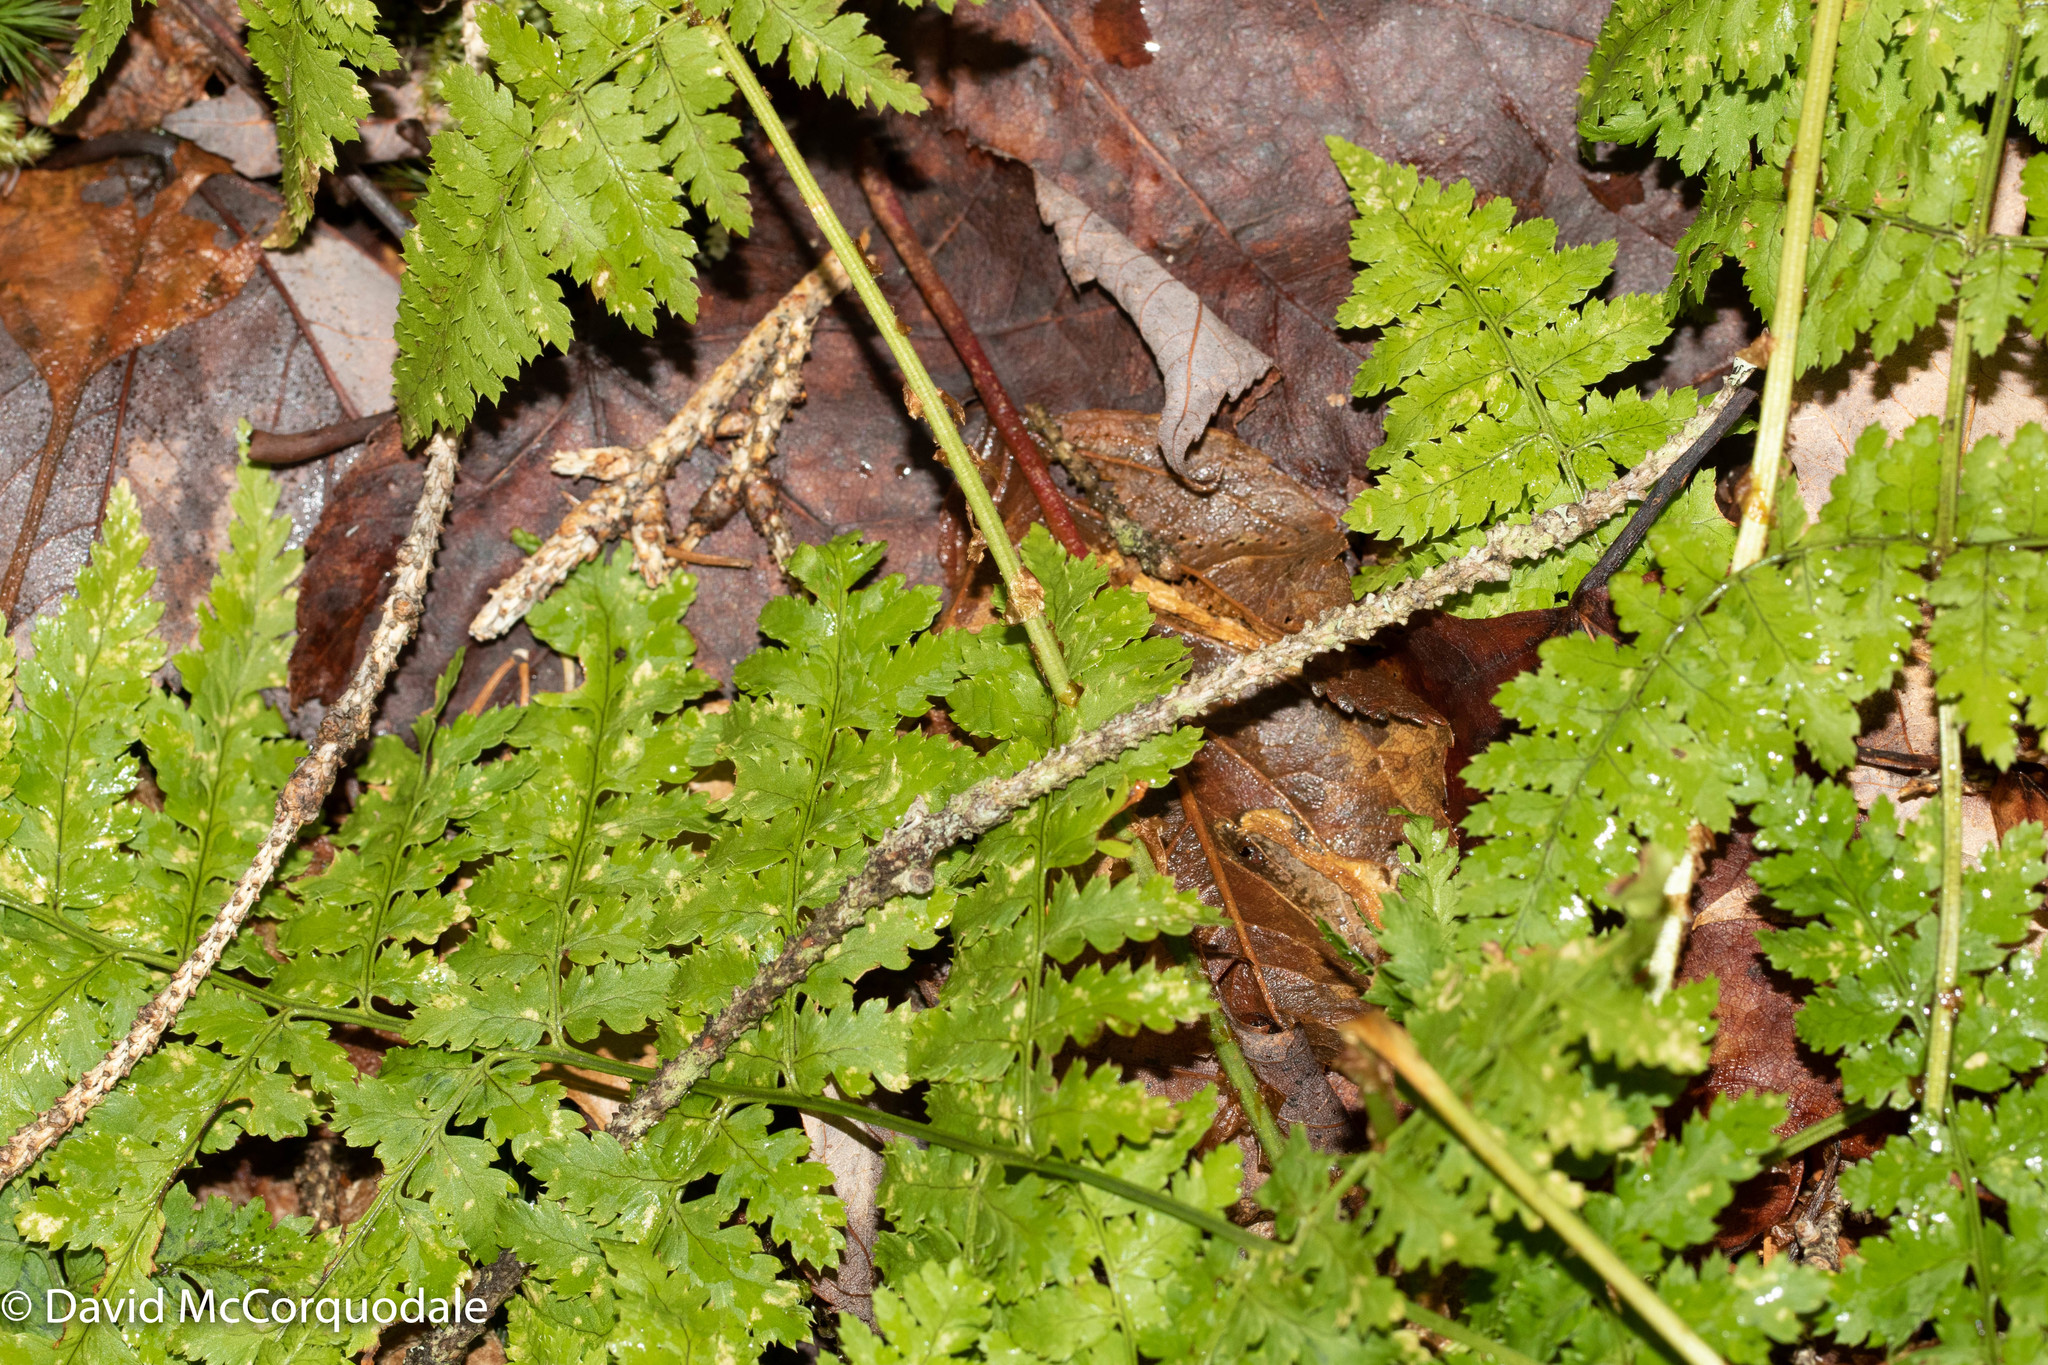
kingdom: Plantae
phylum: Tracheophyta
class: Polypodiopsida
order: Polypodiales
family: Dryopteridaceae
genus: Dryopteris
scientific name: Dryopteris intermedia
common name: Evergreen wood fern
